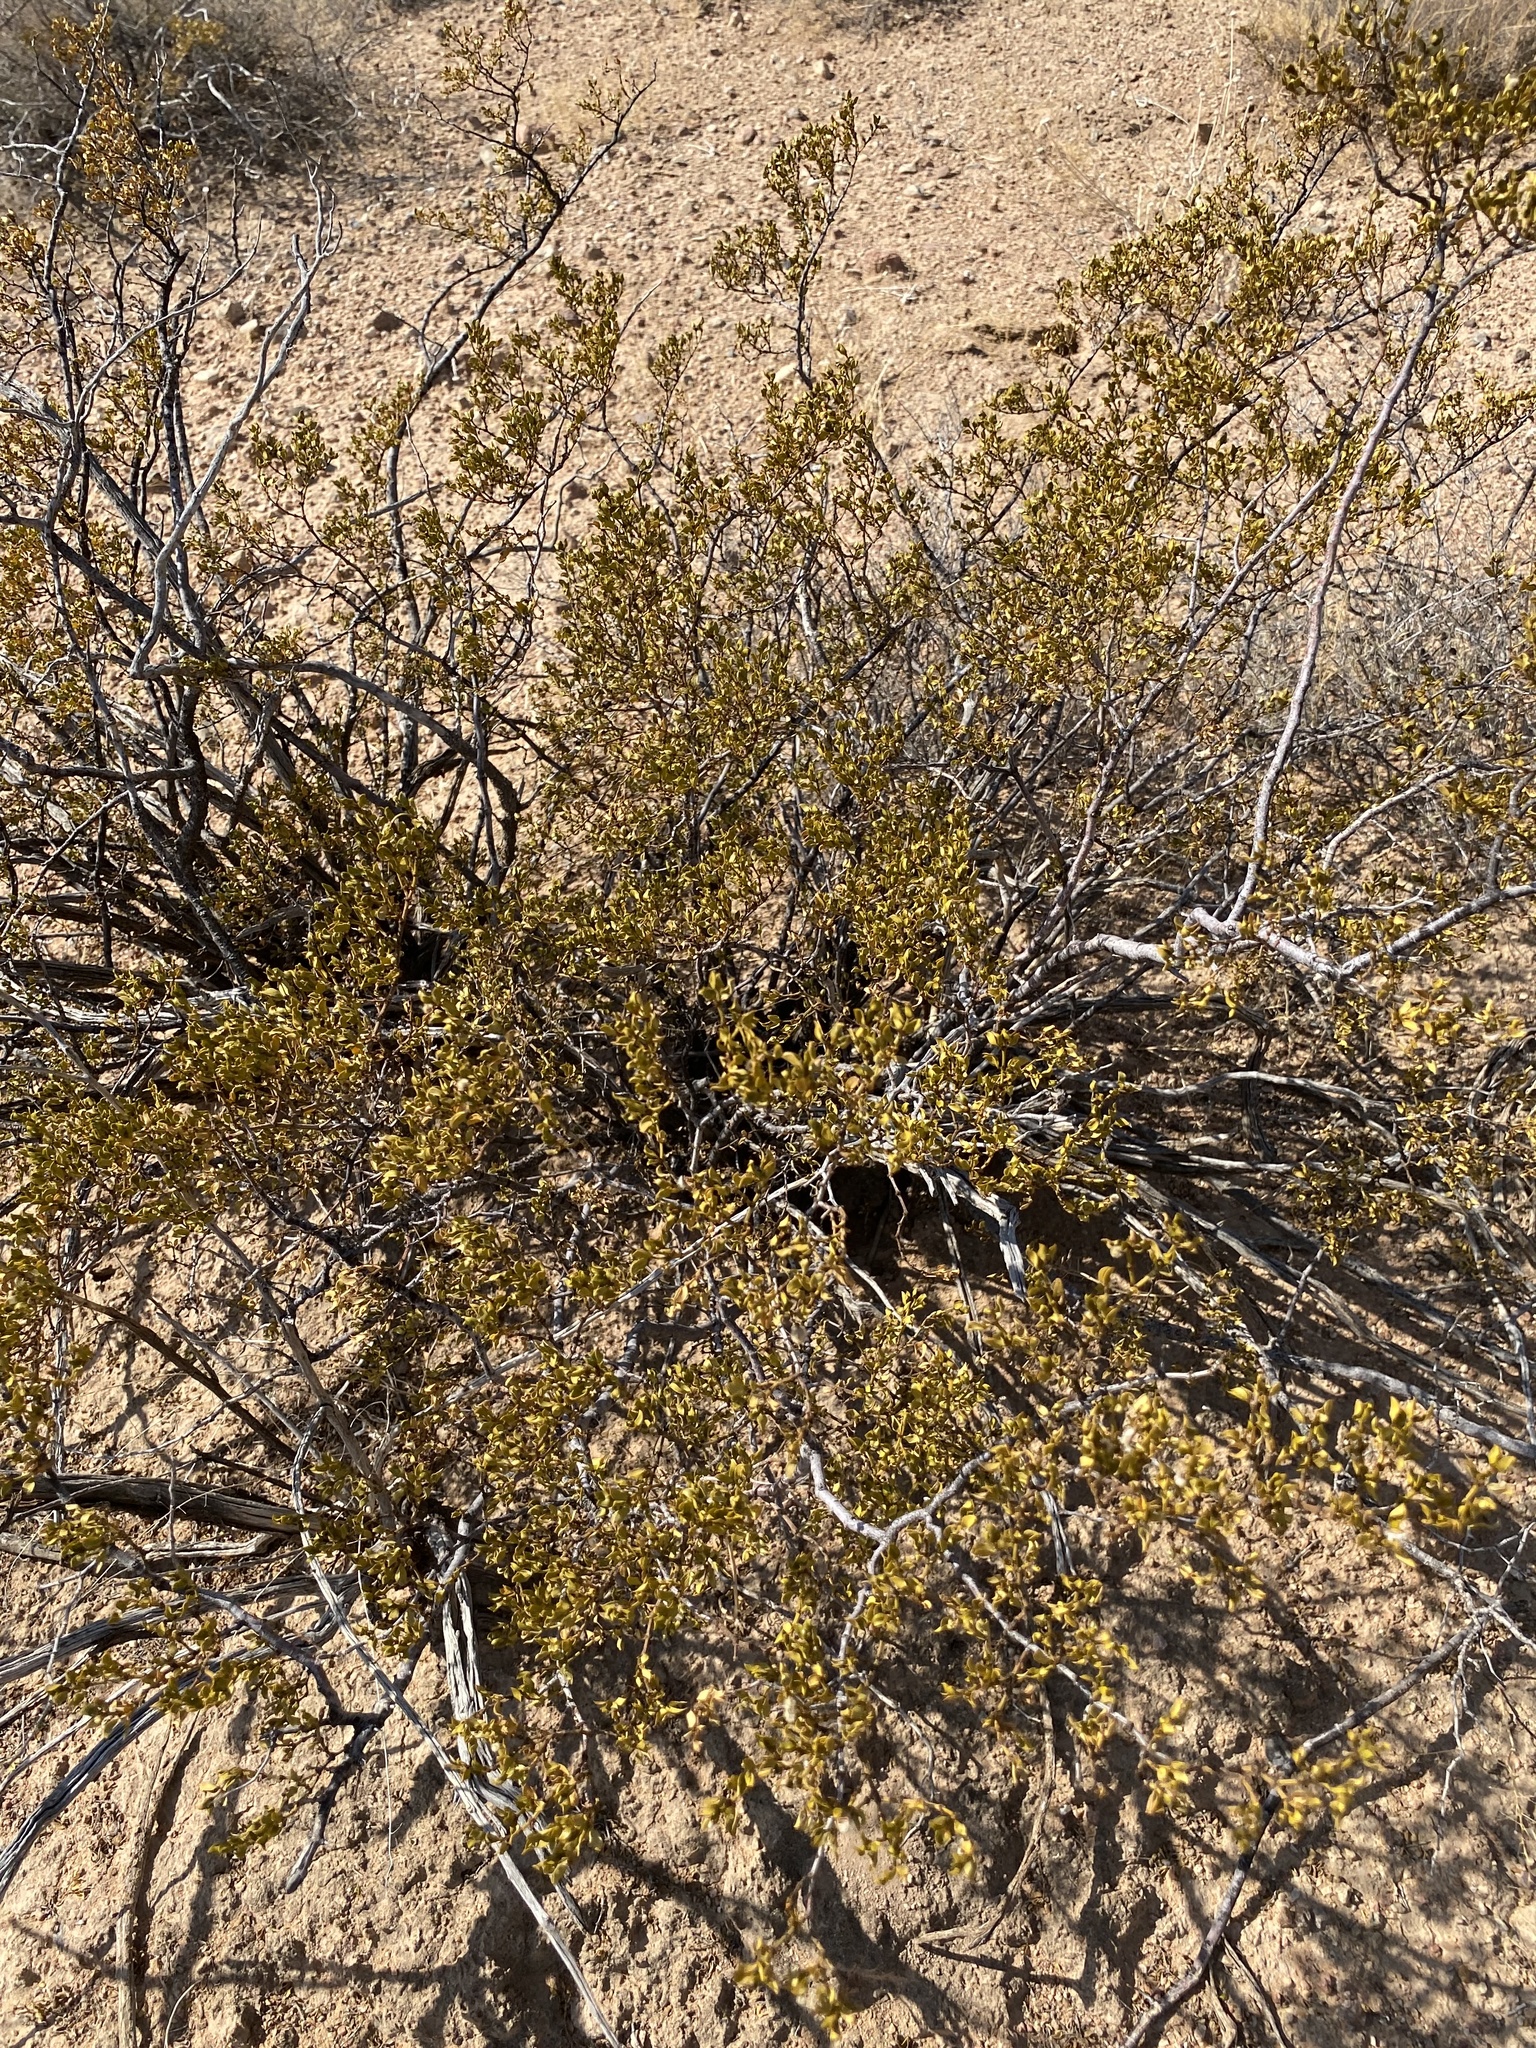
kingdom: Plantae
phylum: Tracheophyta
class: Magnoliopsida
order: Zygophyllales
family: Zygophyllaceae
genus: Larrea
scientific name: Larrea tridentata
